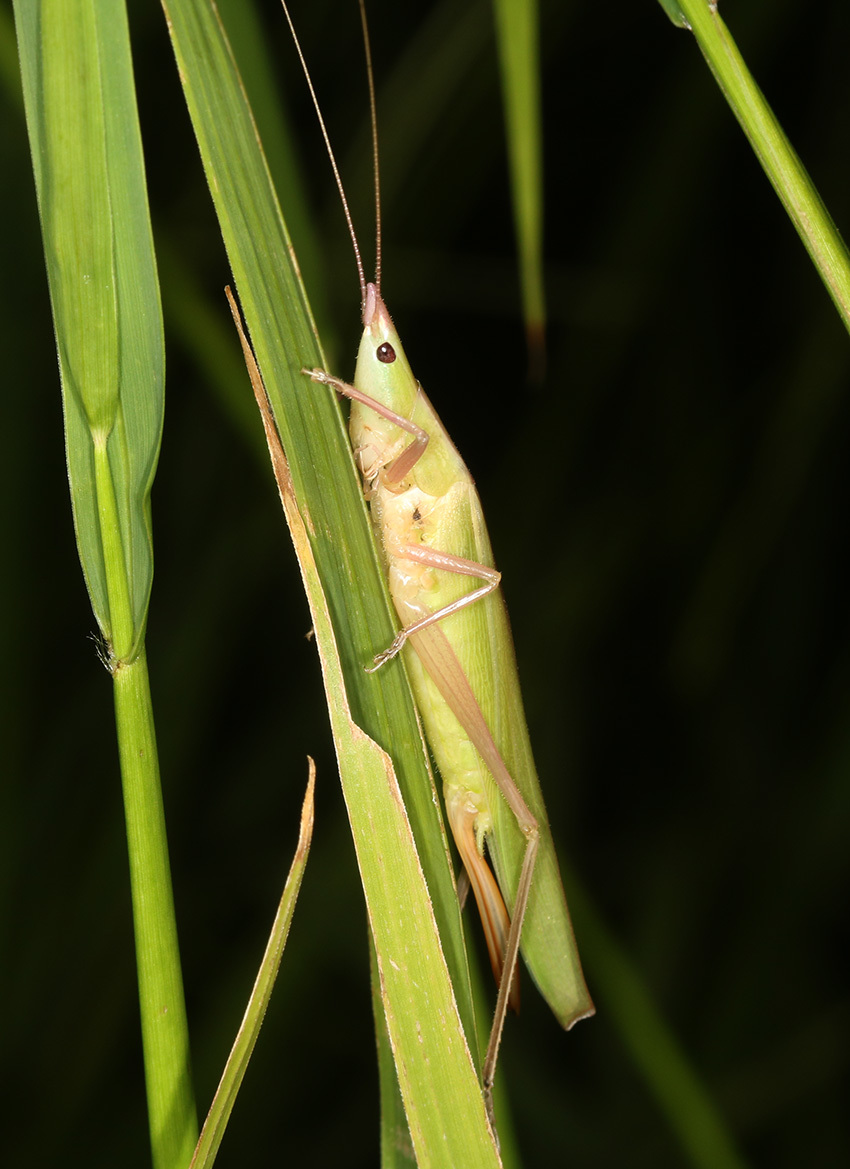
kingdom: Animalia
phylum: Arthropoda
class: Insecta
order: Orthoptera
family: Tettigoniidae
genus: Eucaulopsis
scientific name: Eucaulopsis truncata
